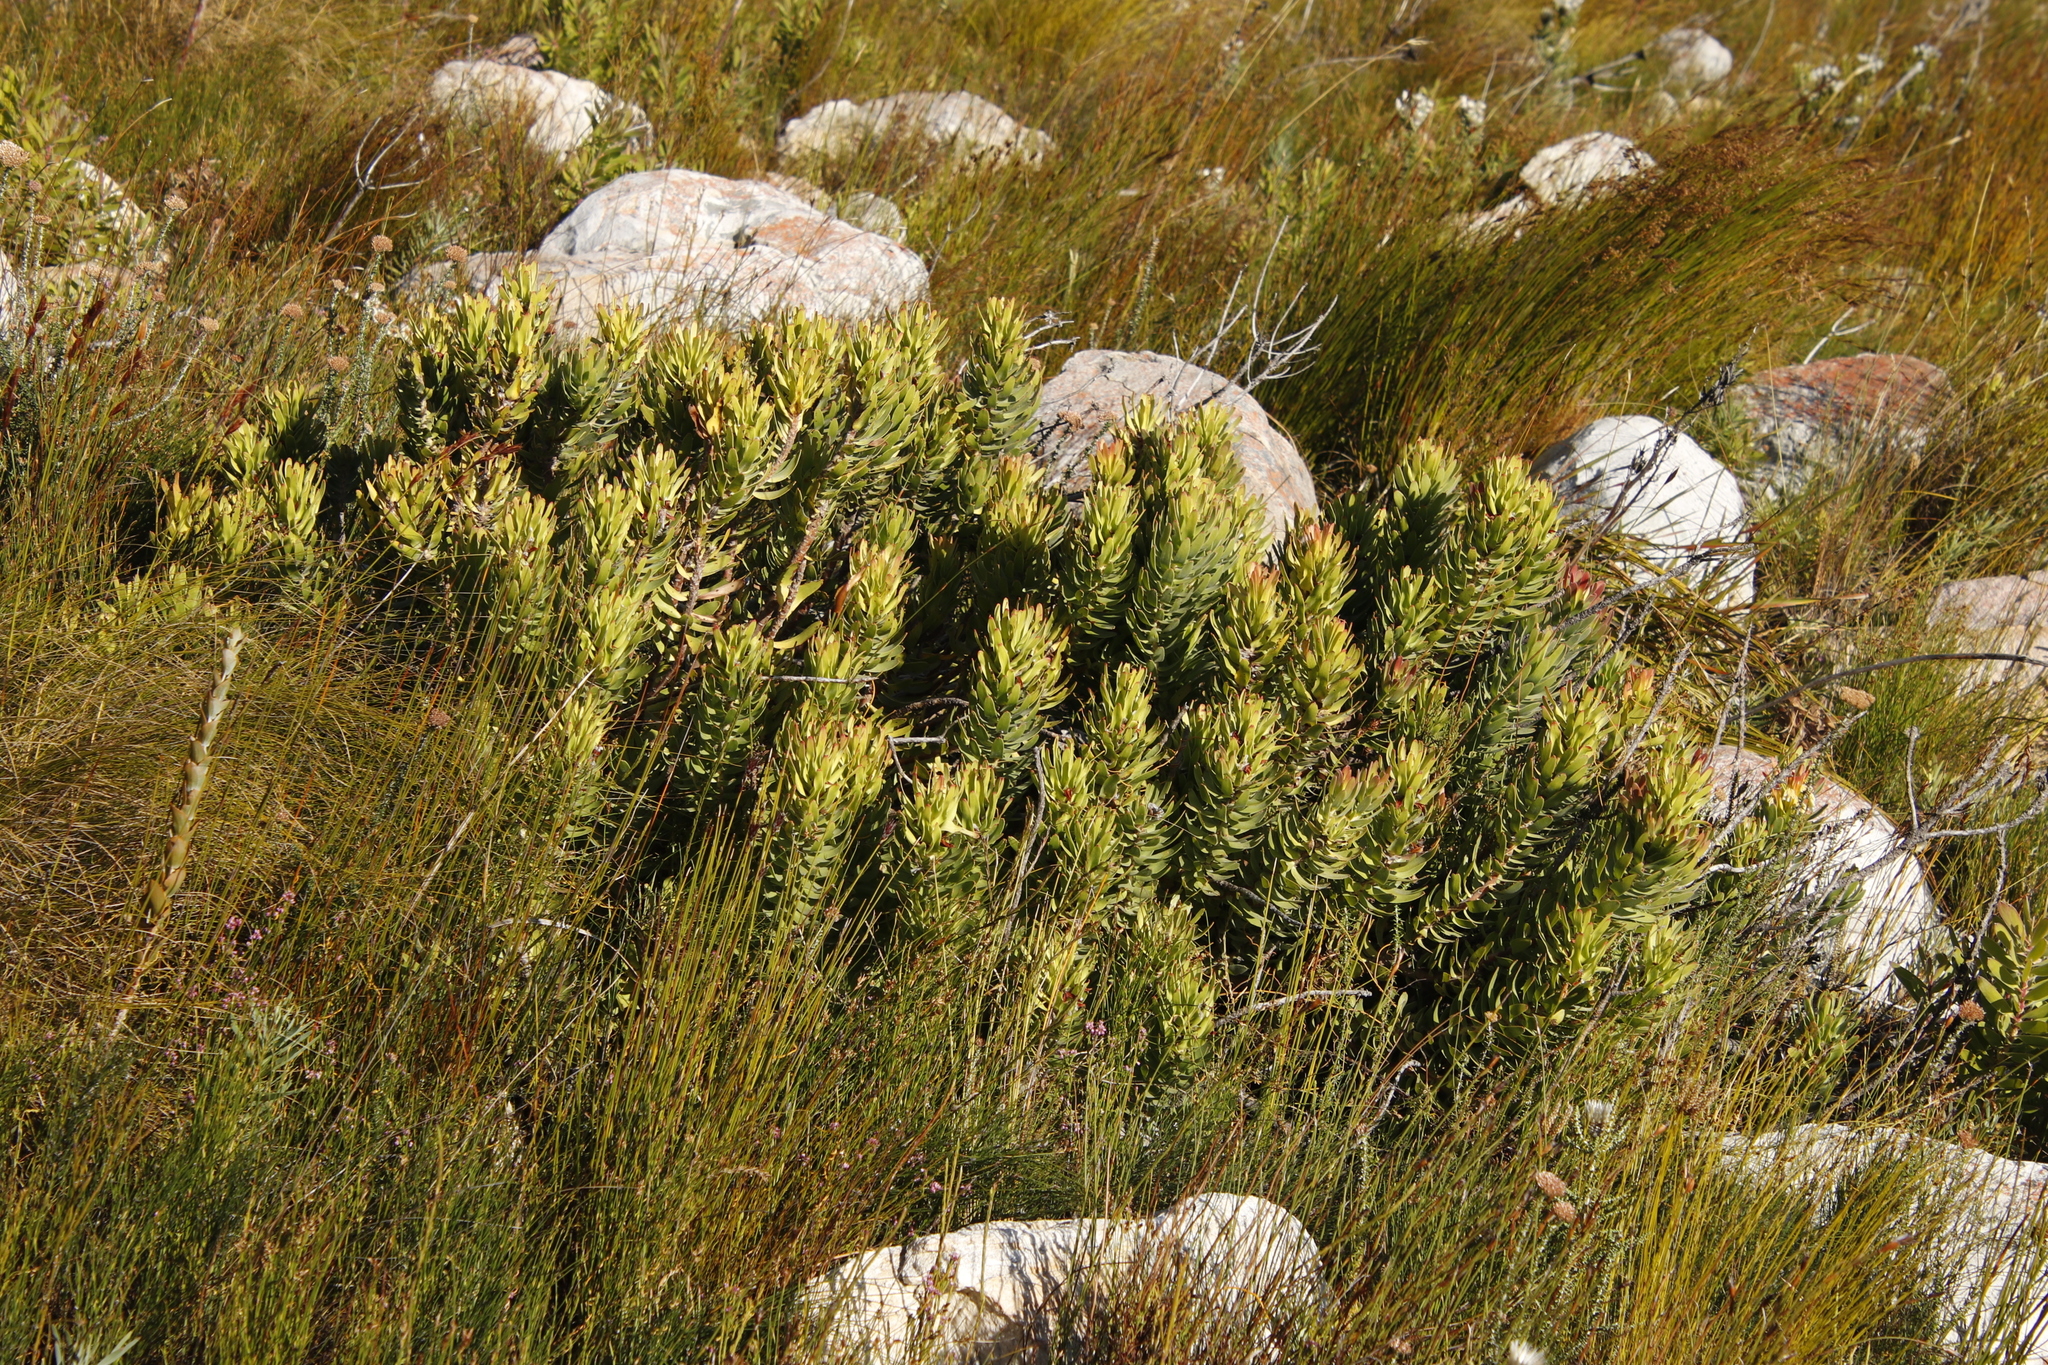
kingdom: Plantae
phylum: Tracheophyta
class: Magnoliopsida
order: Proteales
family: Proteaceae
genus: Mimetes
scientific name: Mimetes cucullatus
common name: Common pagoda
